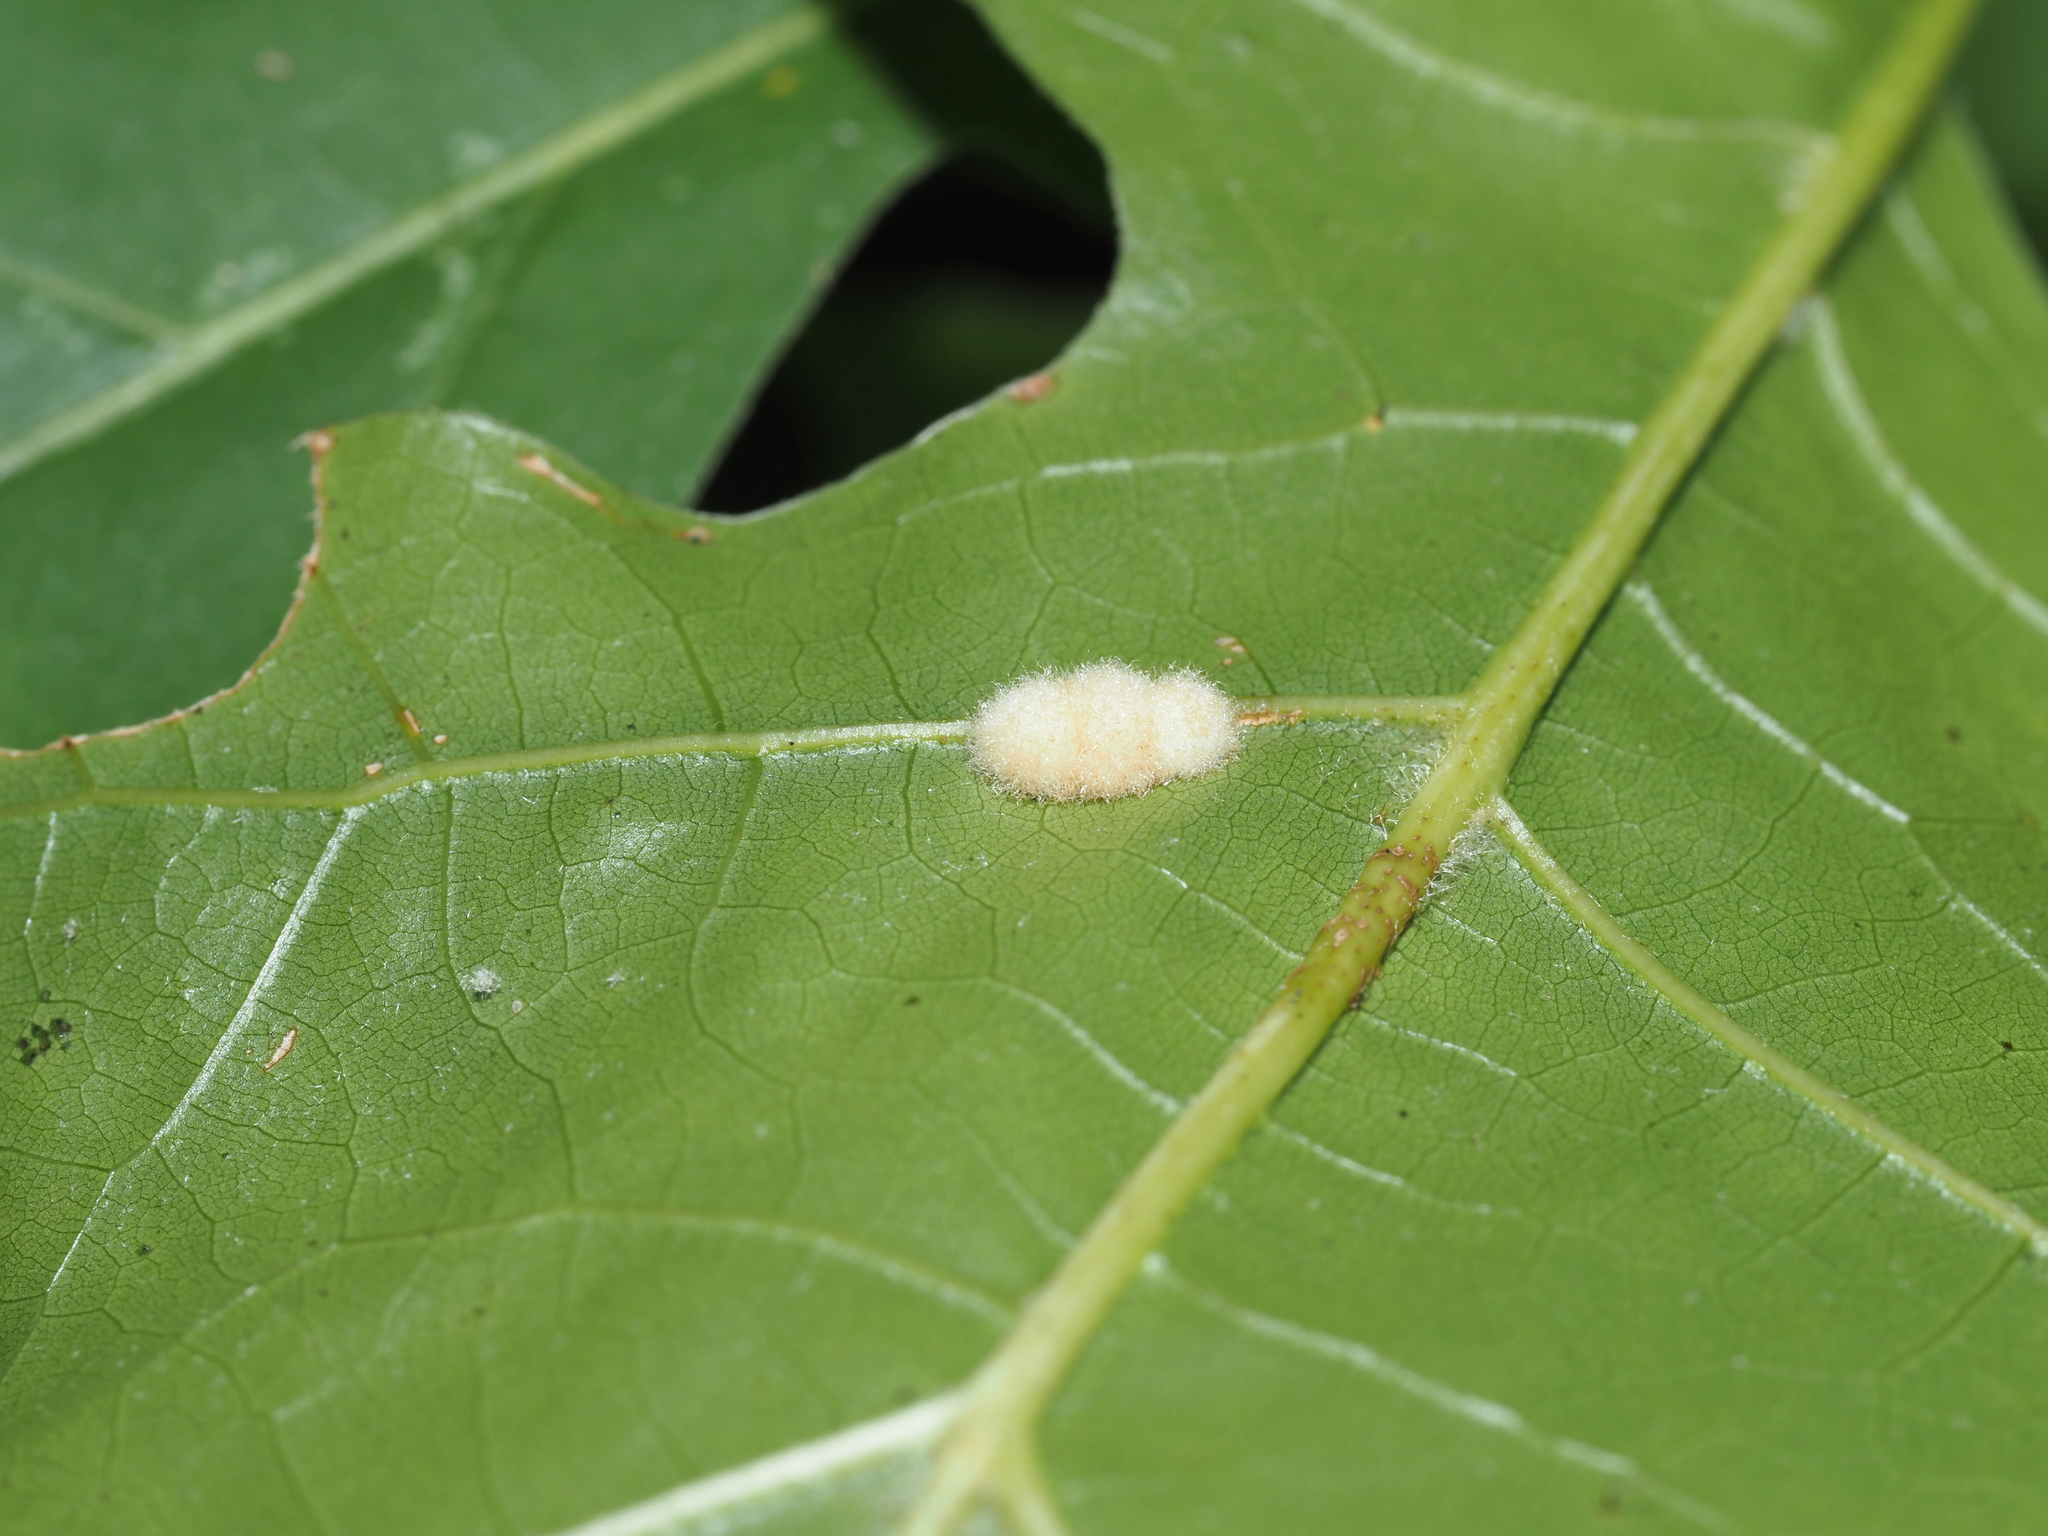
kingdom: Animalia
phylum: Arthropoda
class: Insecta
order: Hymenoptera
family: Cynipidae
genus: Callirhytis
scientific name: Callirhytis
